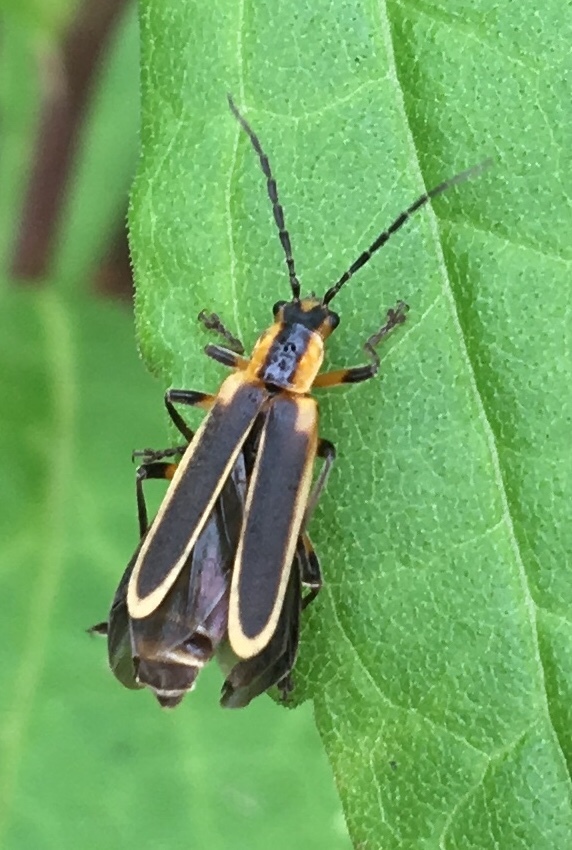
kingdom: Animalia
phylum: Arthropoda
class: Insecta
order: Coleoptera
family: Cantharidae
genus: Chauliognathus
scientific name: Chauliognathus marginatus
